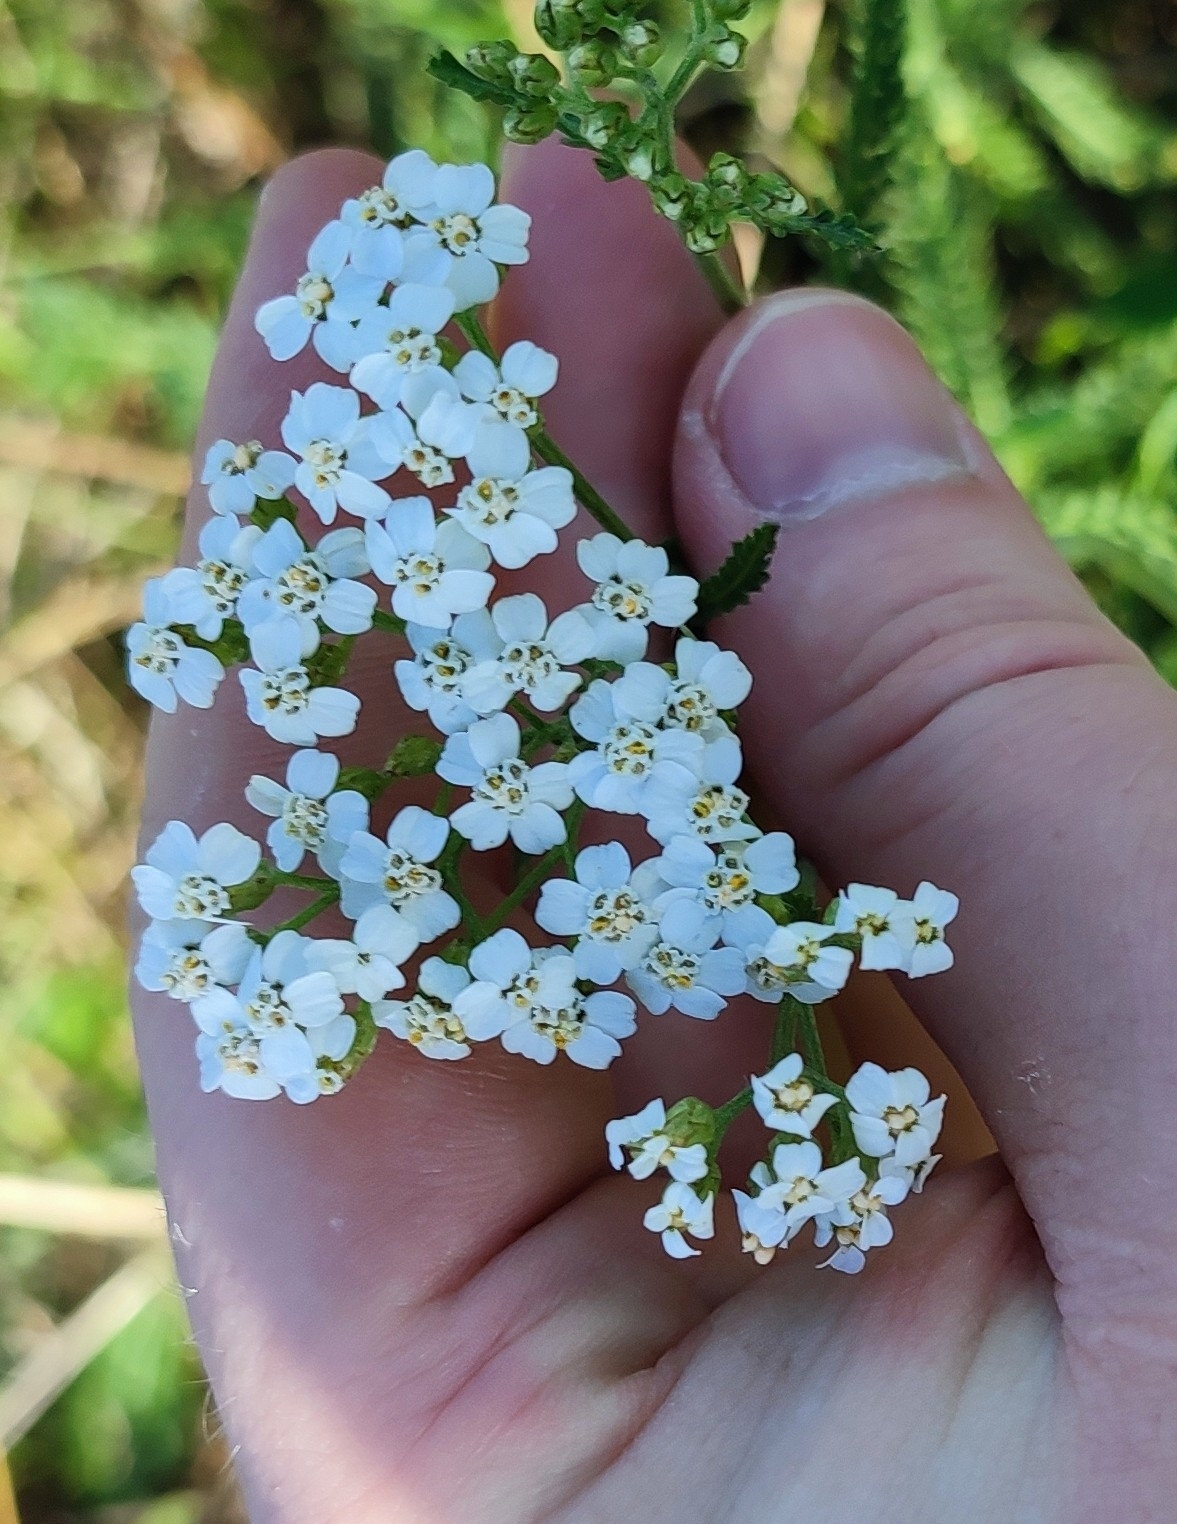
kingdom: Plantae
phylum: Tracheophyta
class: Magnoliopsida
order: Asterales
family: Asteraceae
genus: Achillea
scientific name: Achillea
